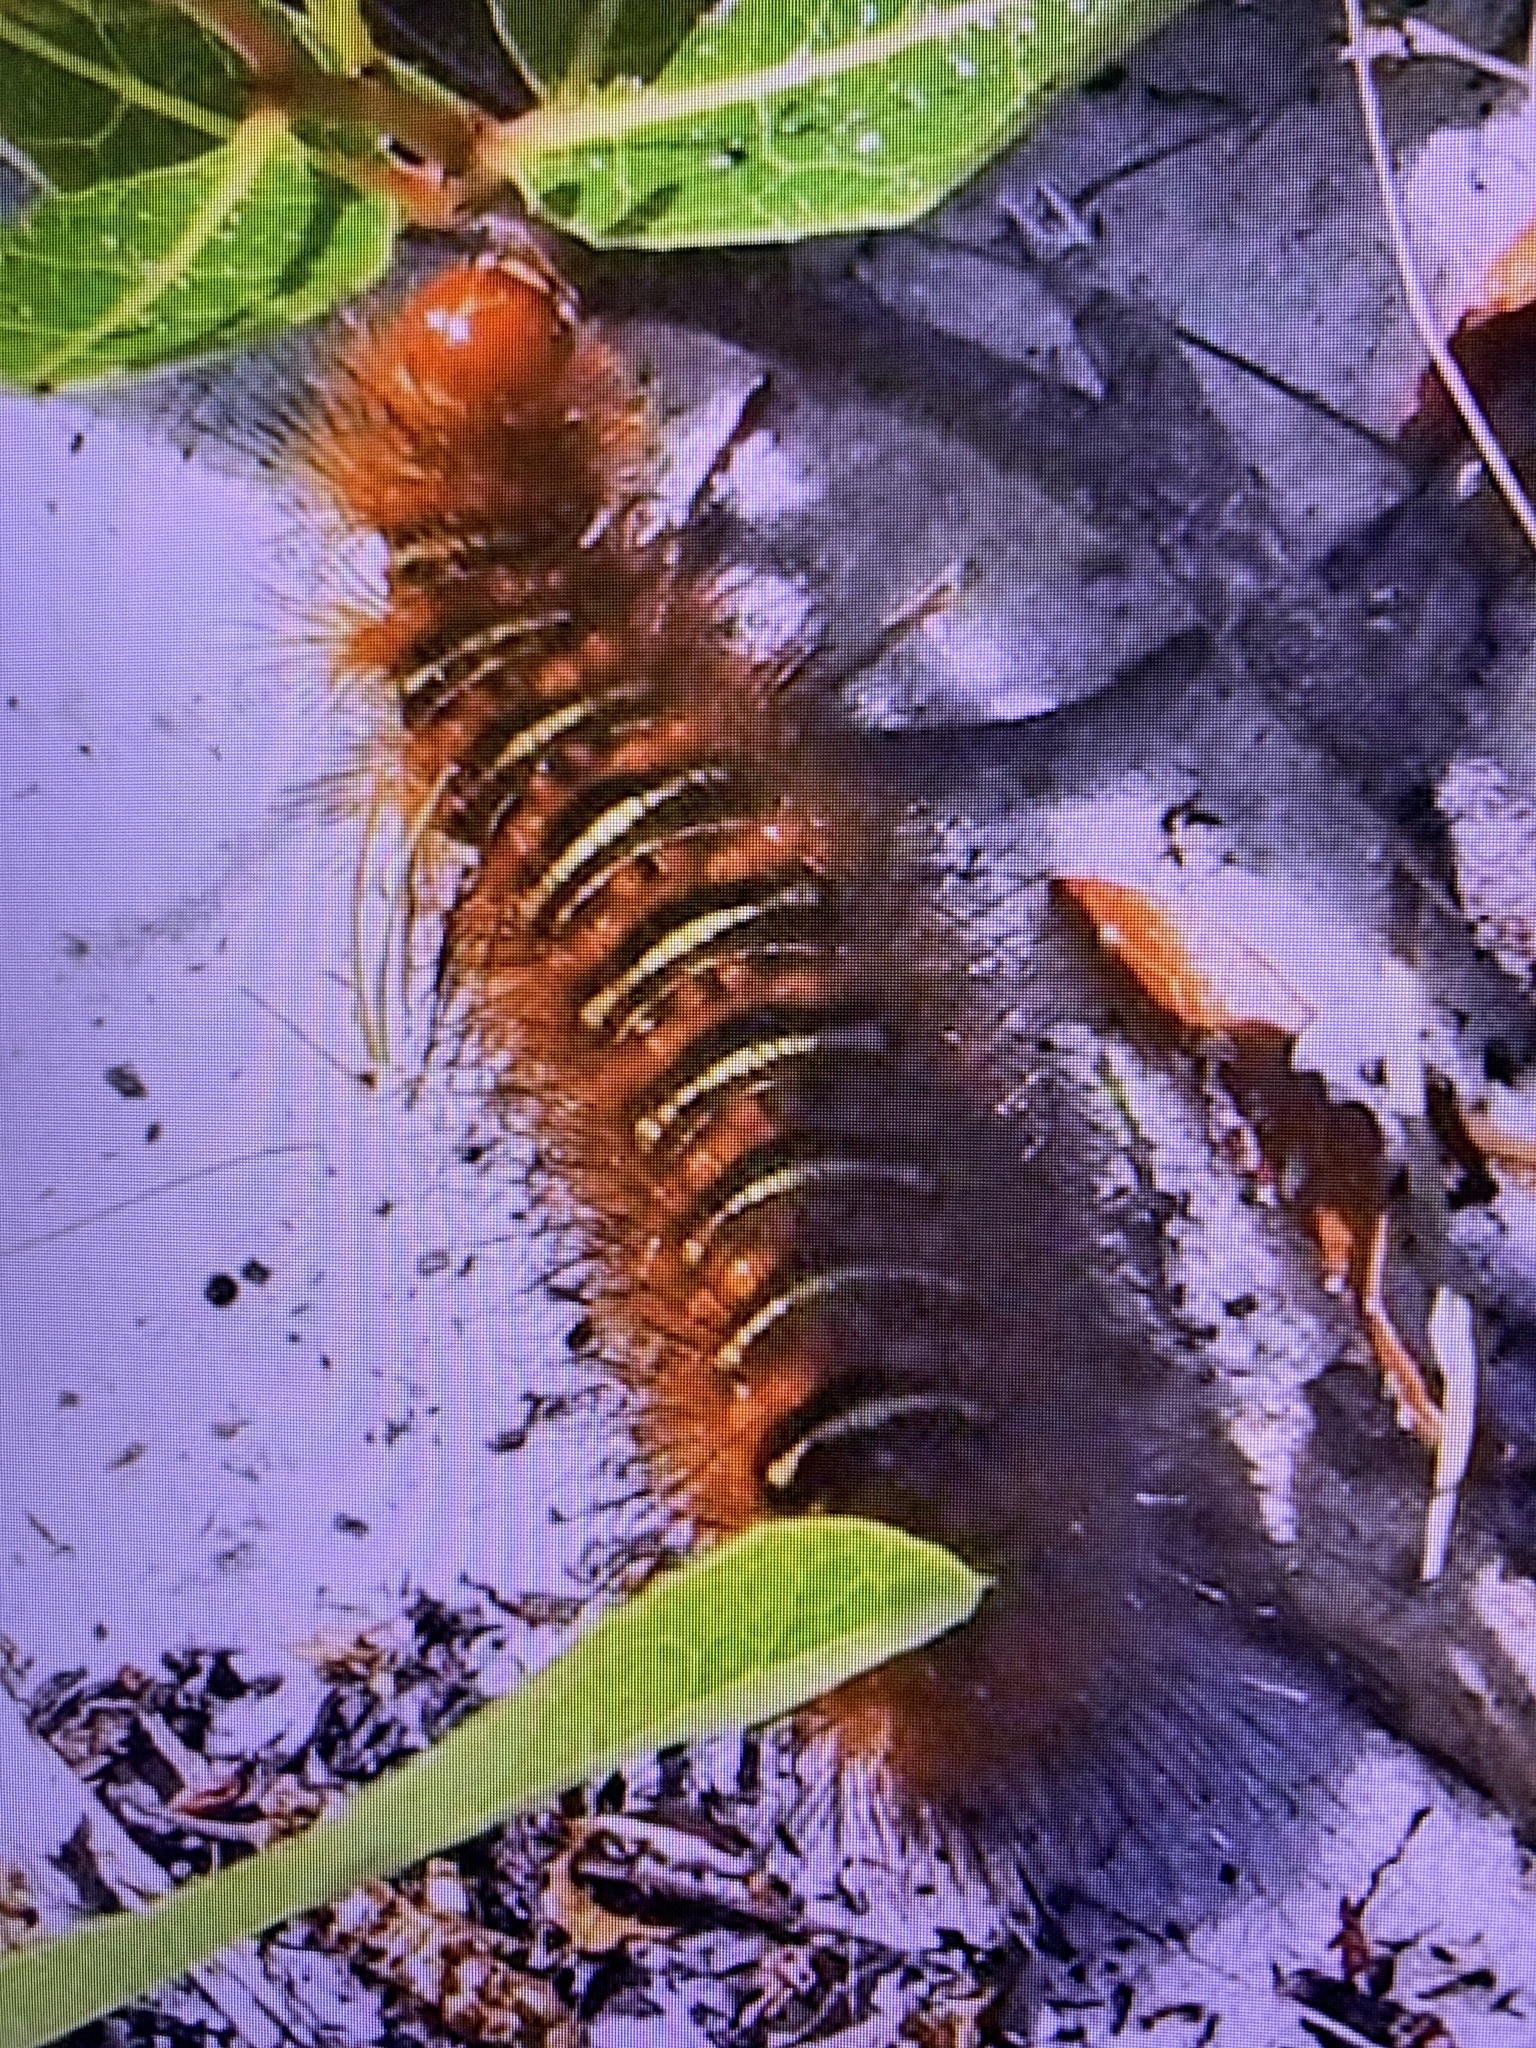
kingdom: Animalia
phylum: Arthropoda
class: Insecta
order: Lepidoptera
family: Erebidae
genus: Seirarctia
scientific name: Seirarctia echo
